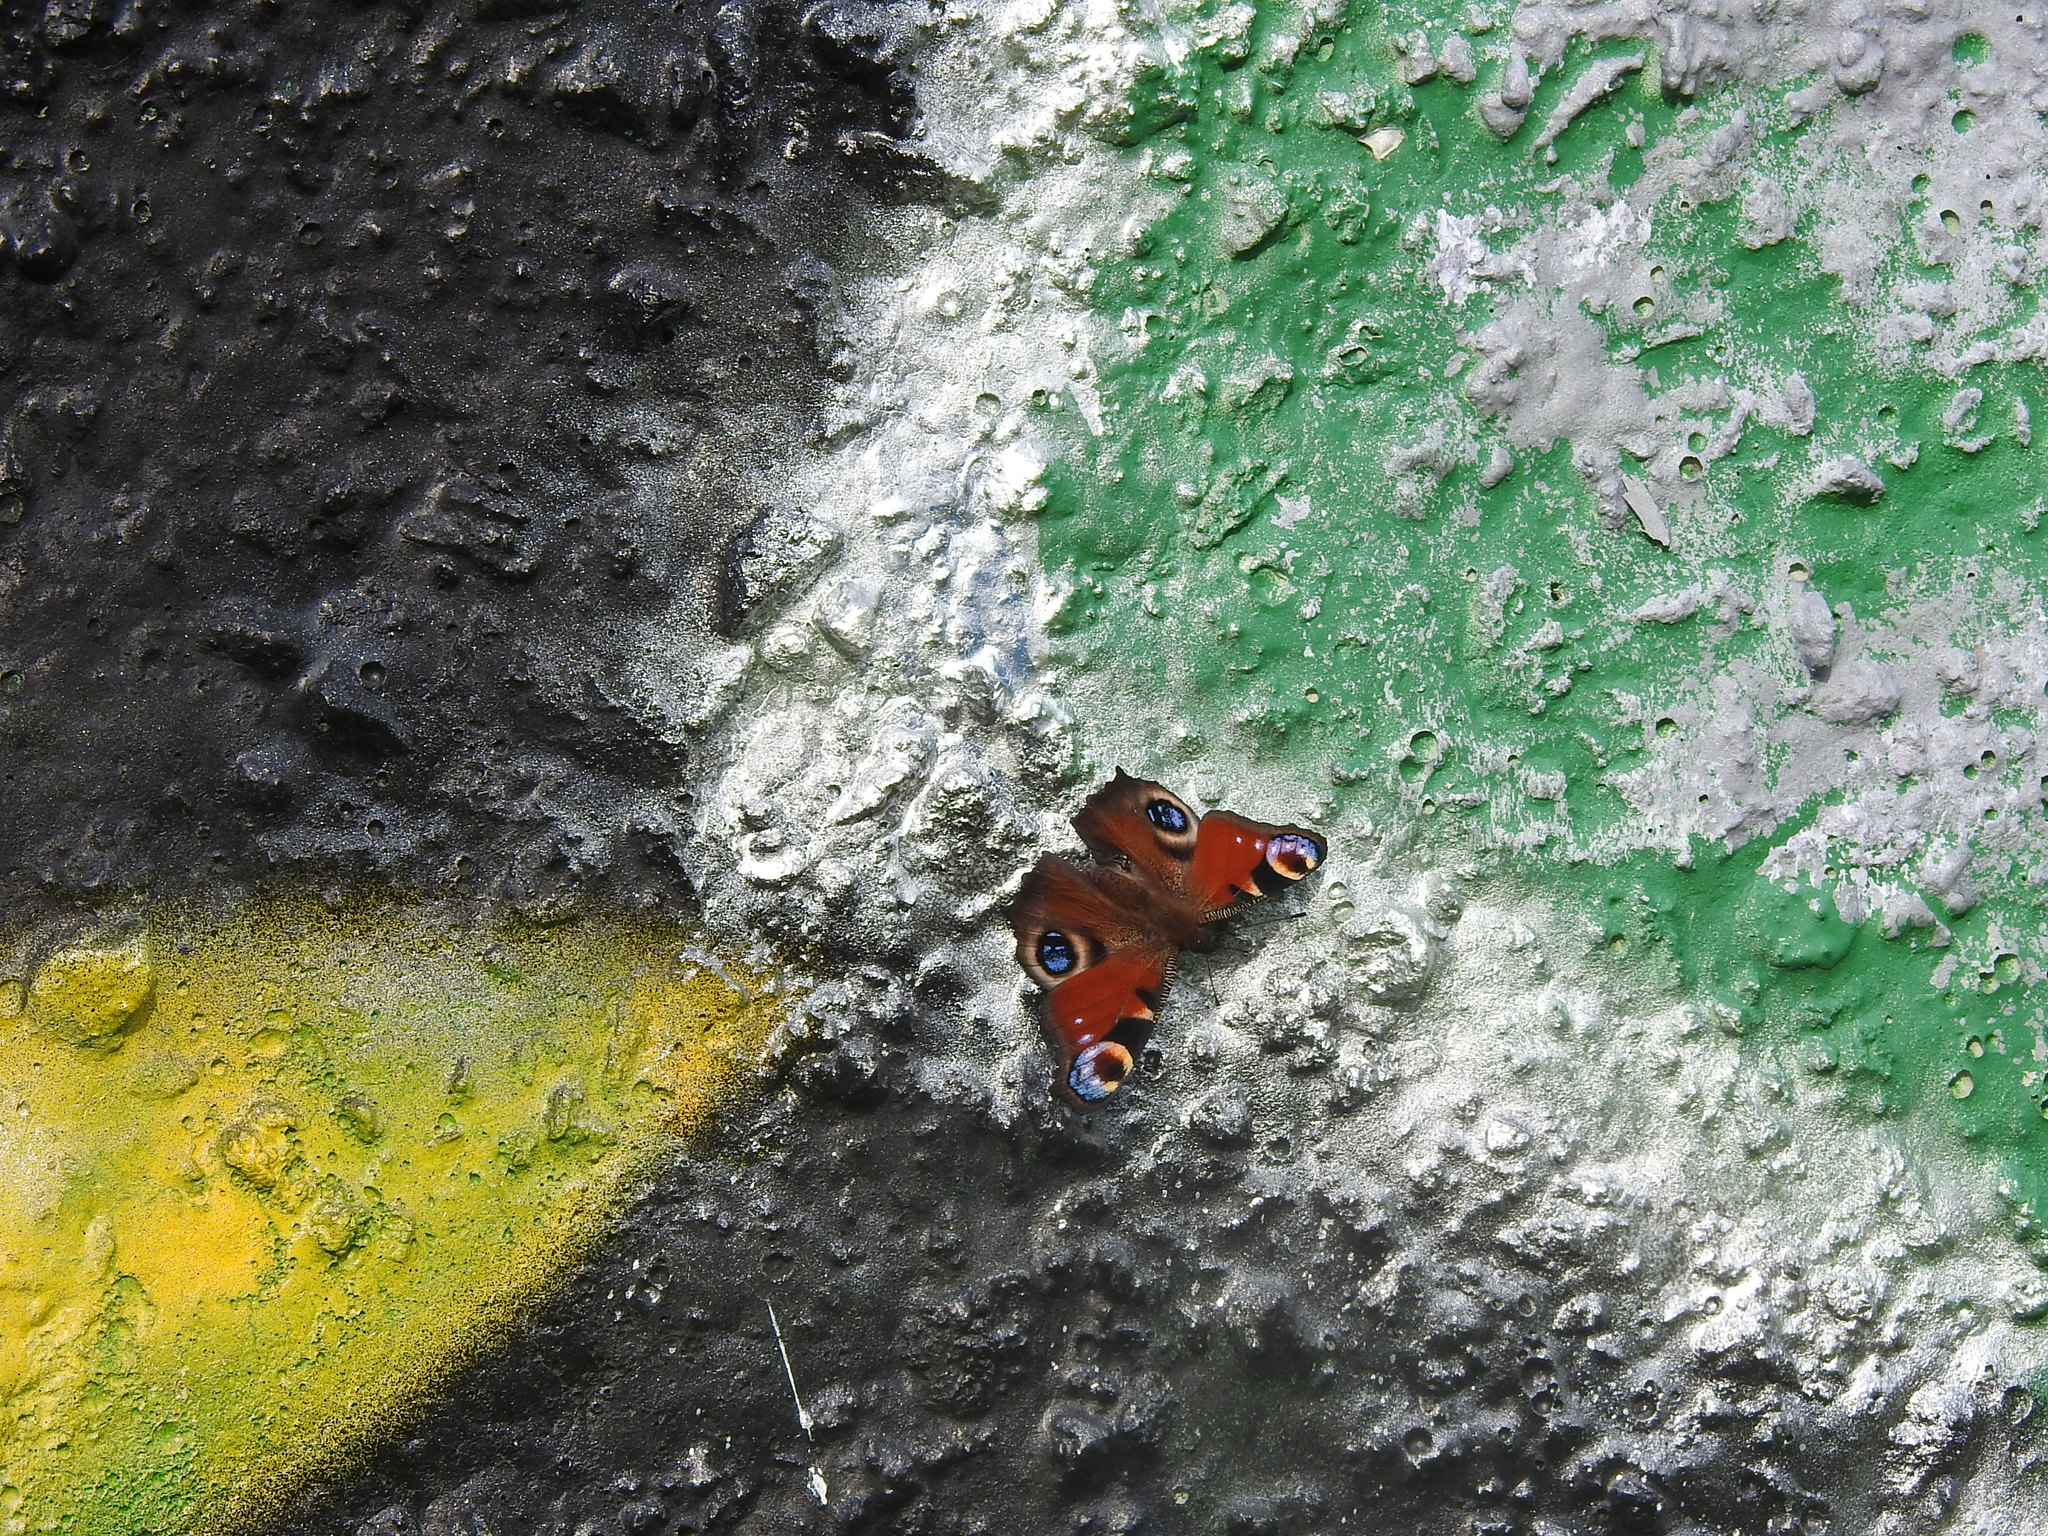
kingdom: Animalia
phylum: Arthropoda
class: Insecta
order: Lepidoptera
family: Nymphalidae
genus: Aglais
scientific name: Aglais io
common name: Peacock
